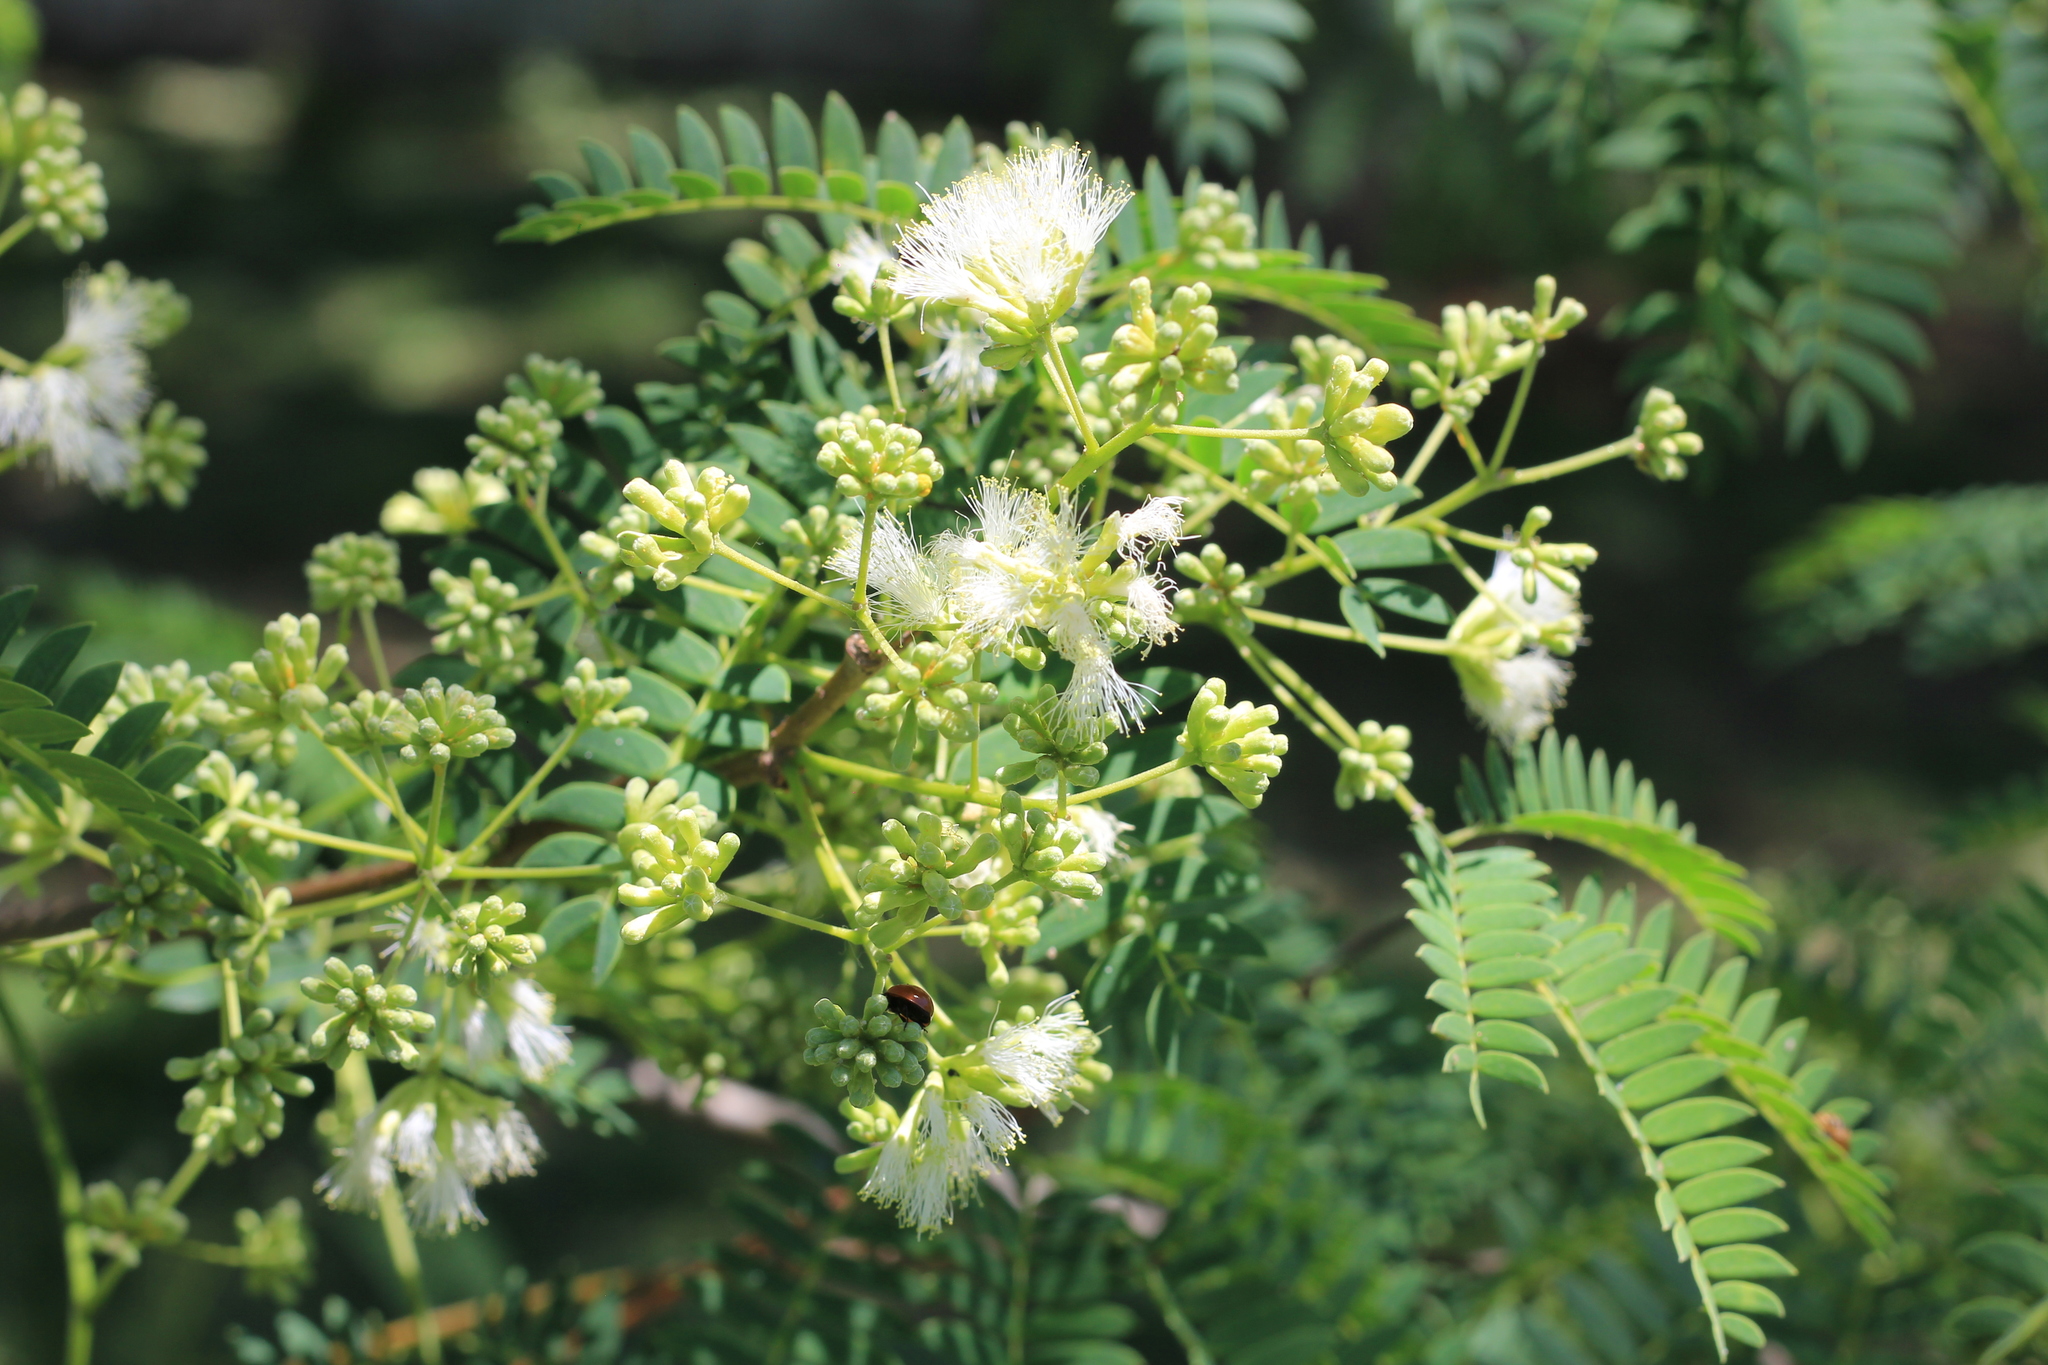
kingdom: Plantae
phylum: Tracheophyta
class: Magnoliopsida
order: Fabales
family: Fabaceae
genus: Enterolobium
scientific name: Enterolobium contortisiliquum
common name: Pacara earpod tree
